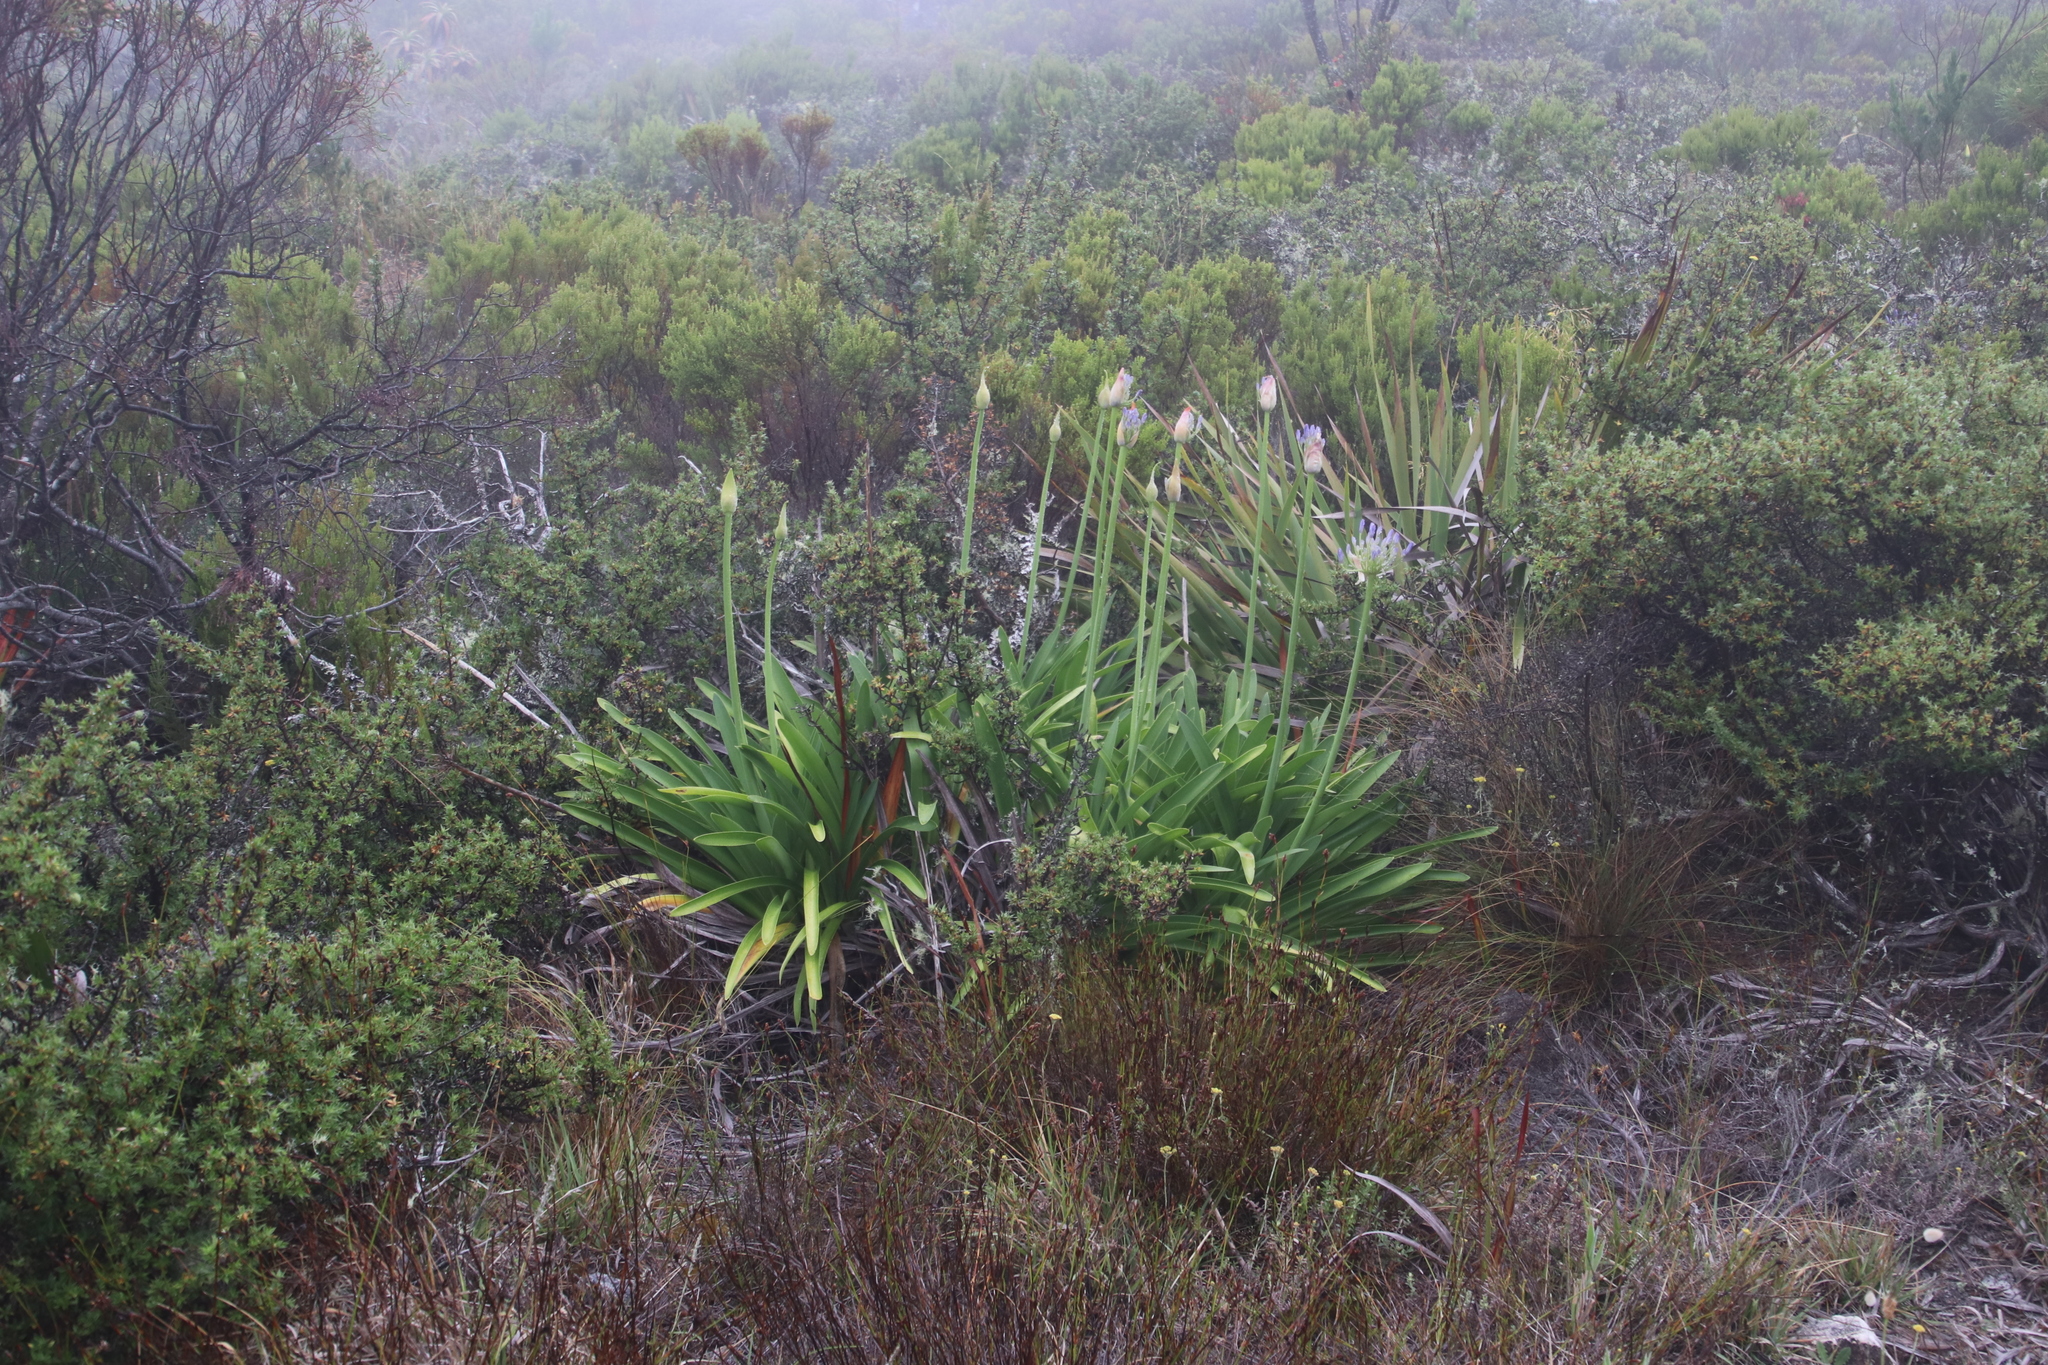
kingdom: Plantae
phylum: Tracheophyta
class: Liliopsida
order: Asparagales
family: Amaryllidaceae
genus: Agapanthus
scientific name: Agapanthus praecox
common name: African-lily
